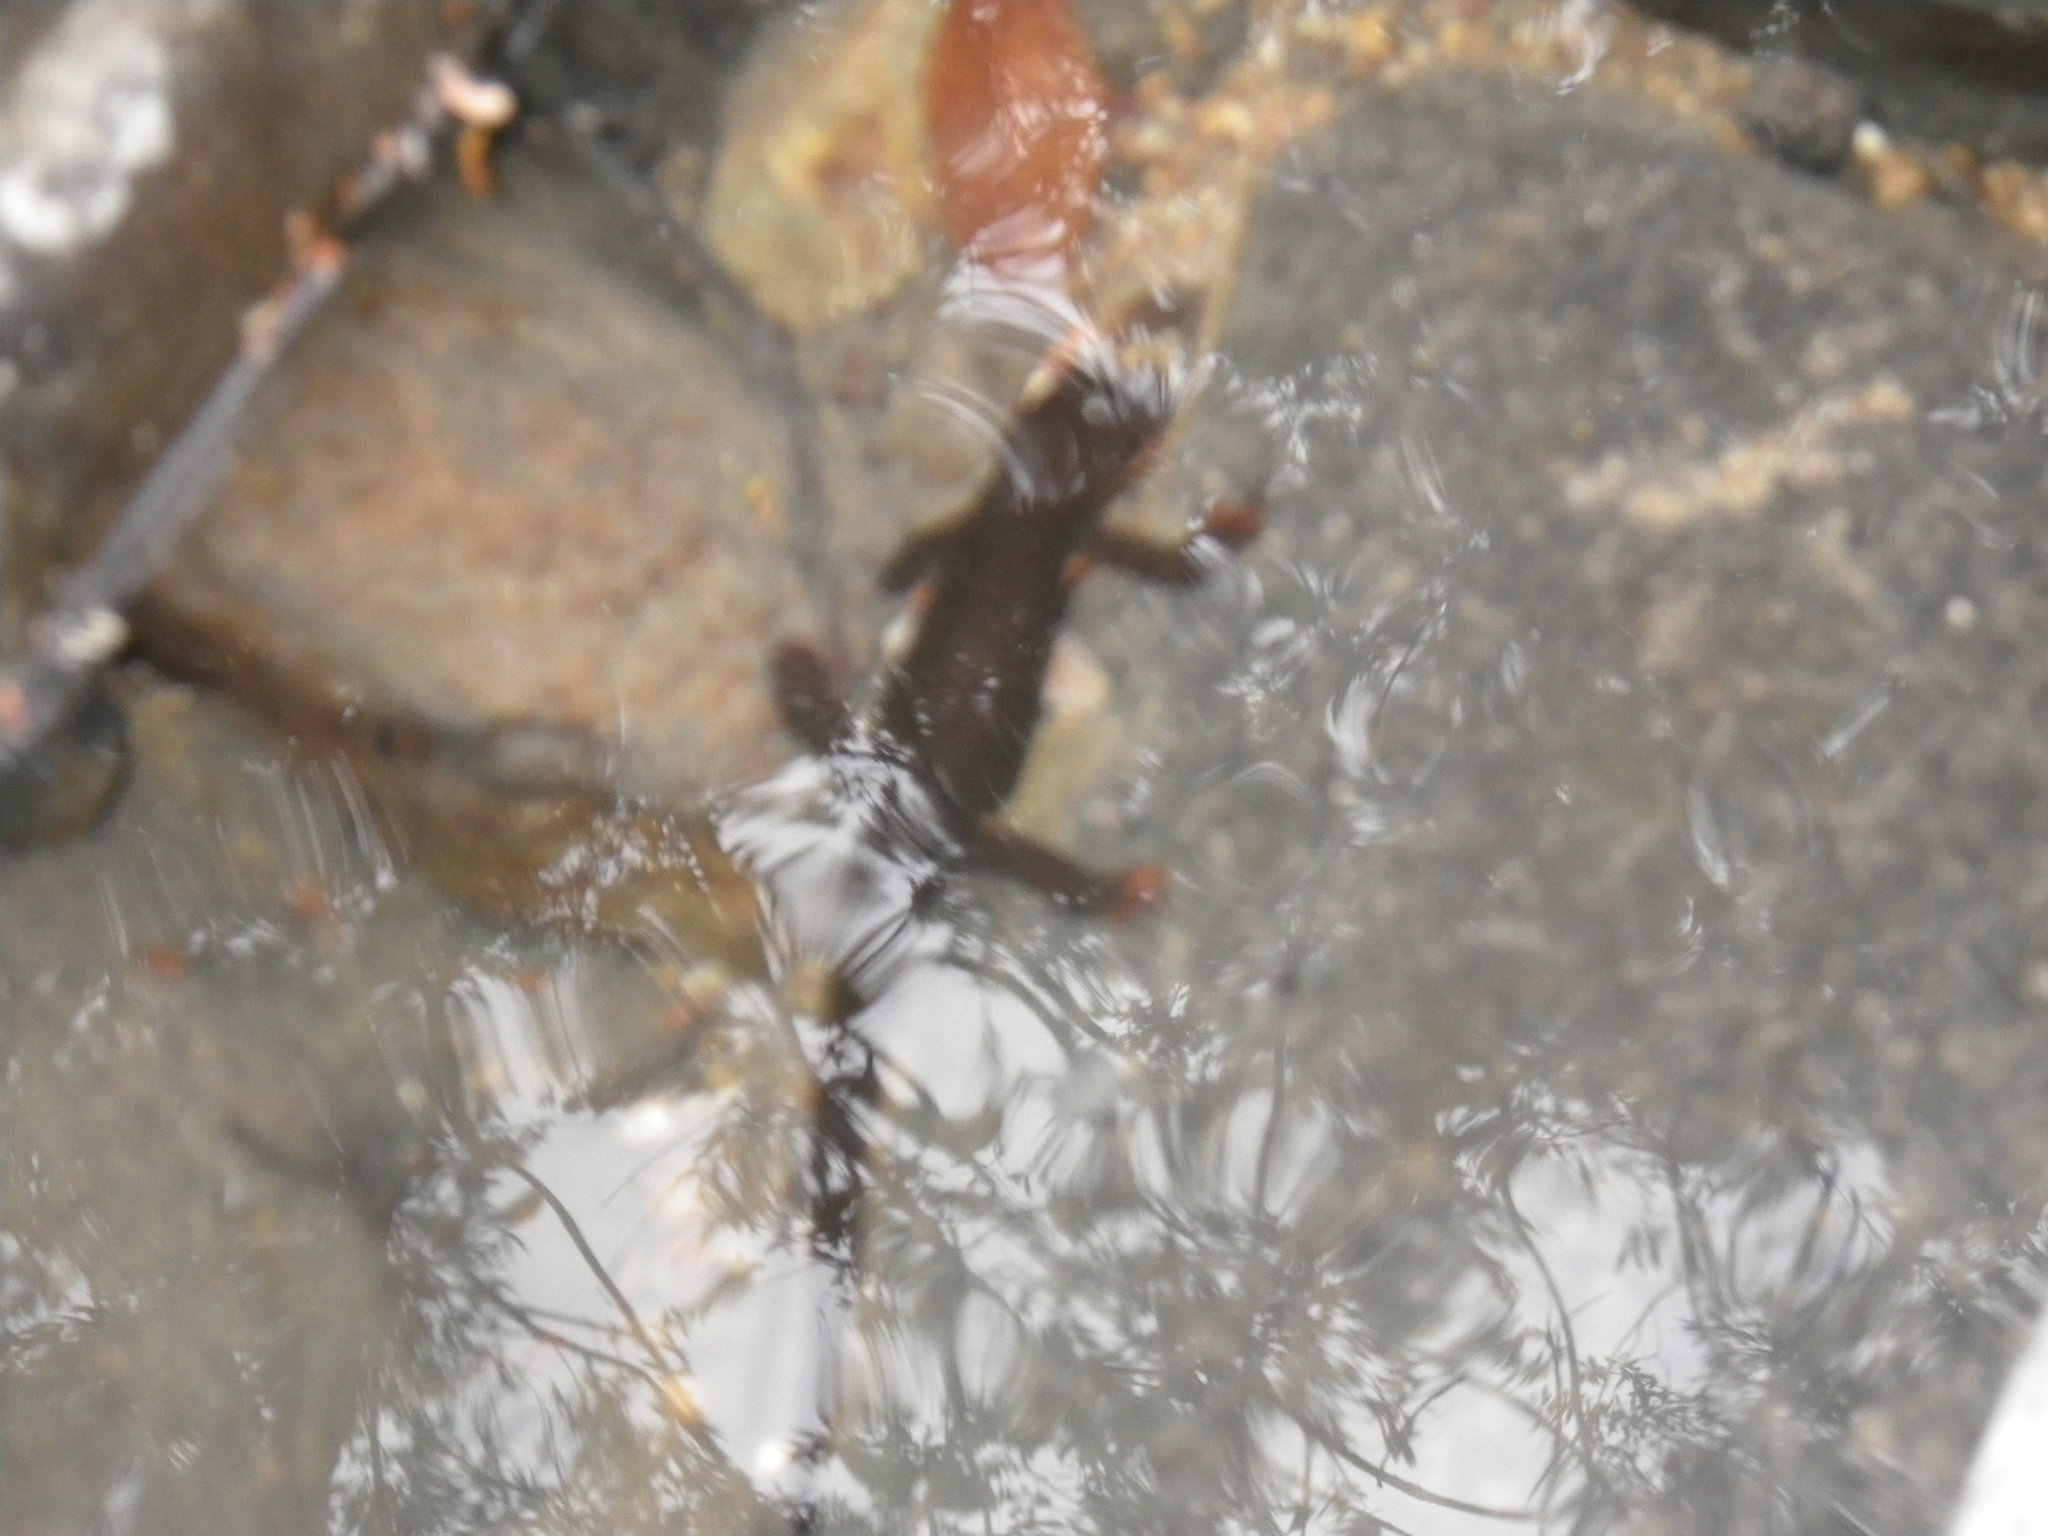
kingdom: Animalia
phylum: Chordata
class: Amphibia
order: Caudata
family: Salamandridae
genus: Taricha
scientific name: Taricha rivularis
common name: Red-bellied newt
